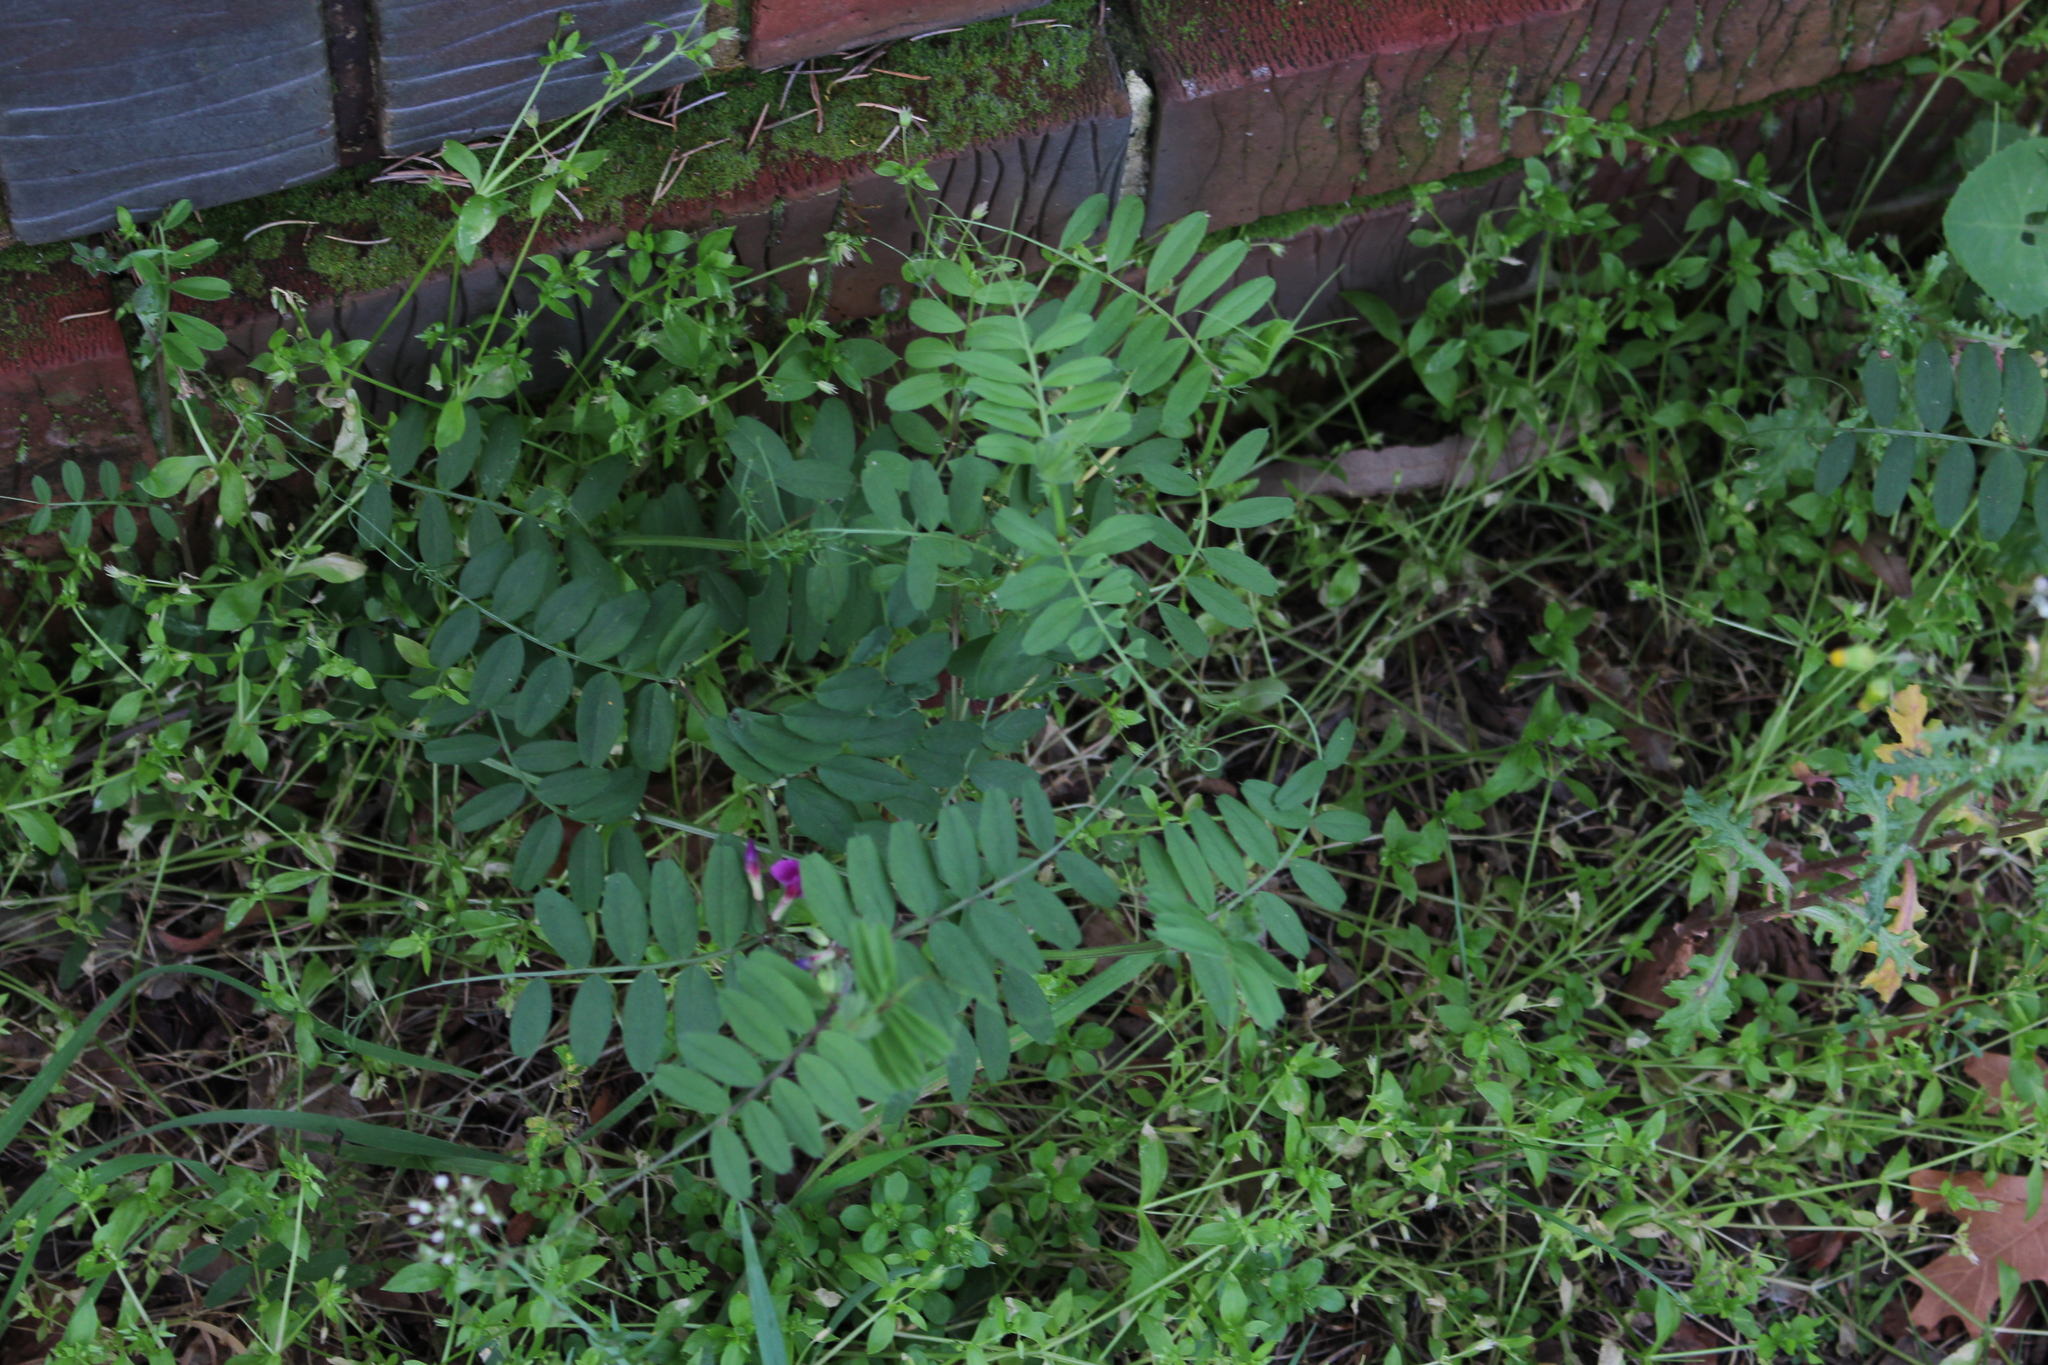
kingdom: Plantae
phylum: Tracheophyta
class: Magnoliopsida
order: Fabales
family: Fabaceae
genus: Vicia
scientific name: Vicia sativa
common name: Garden vetch
